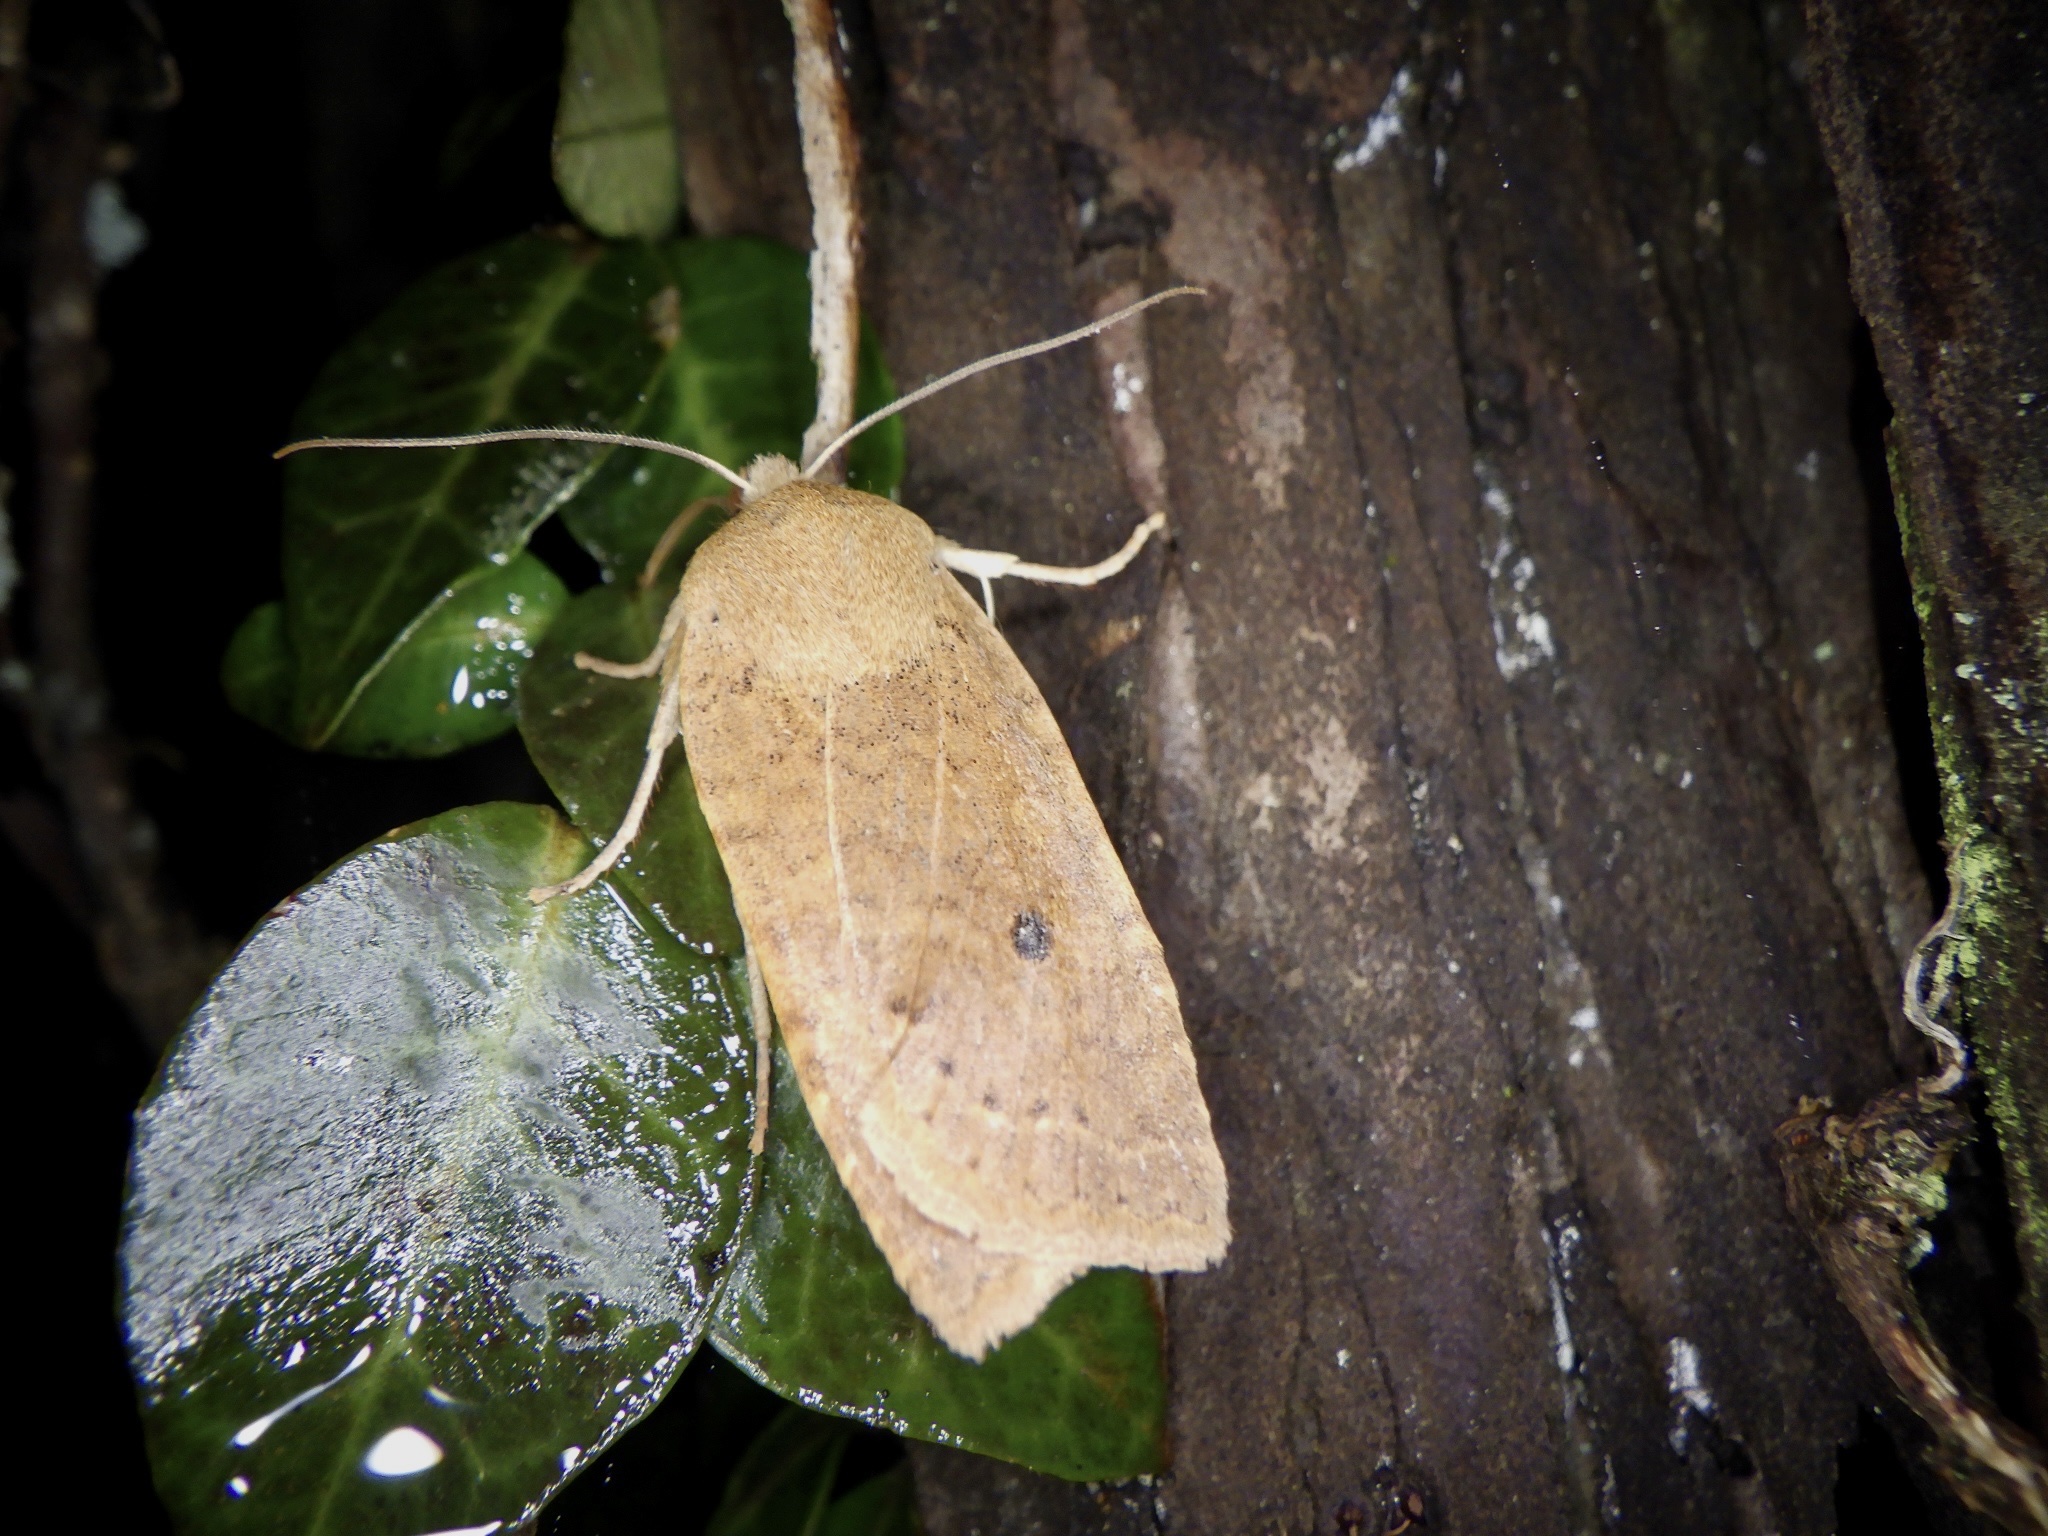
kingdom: Animalia
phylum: Arthropoda
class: Insecta
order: Lepidoptera
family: Noctuidae
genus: Conistra
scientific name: Conistra albipuncta
